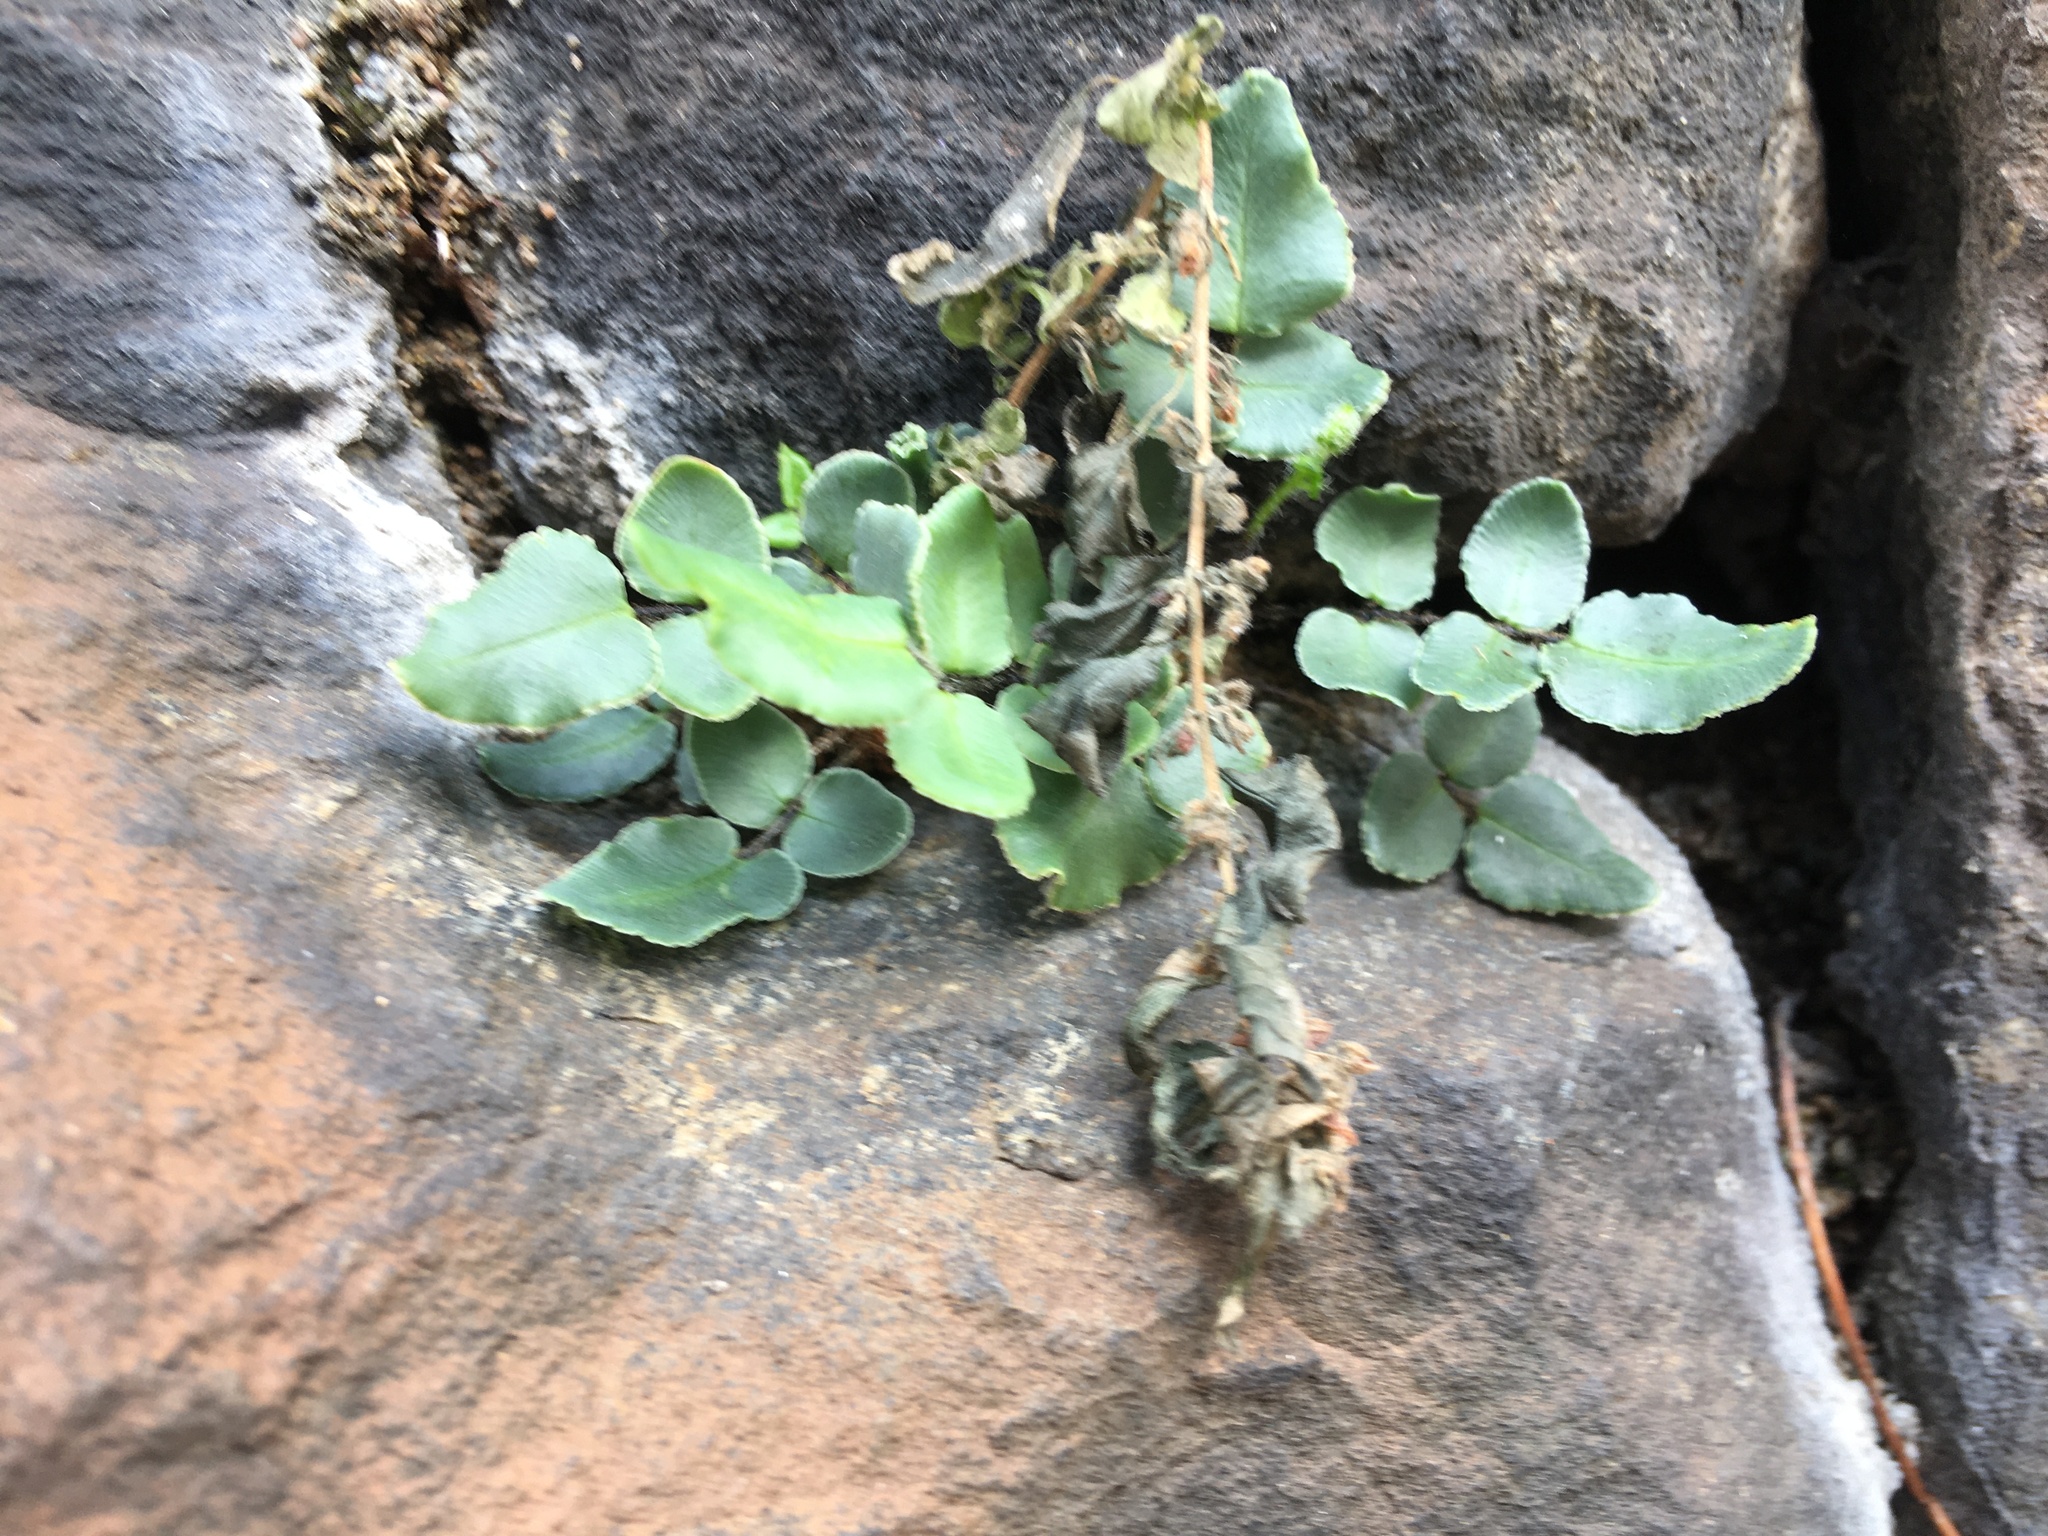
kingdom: Plantae
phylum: Tracheophyta
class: Polypodiopsida
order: Polypodiales
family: Pteridaceae
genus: Pellaea
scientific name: Pellaea atropurpurea
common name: Hairy cliffbrake
